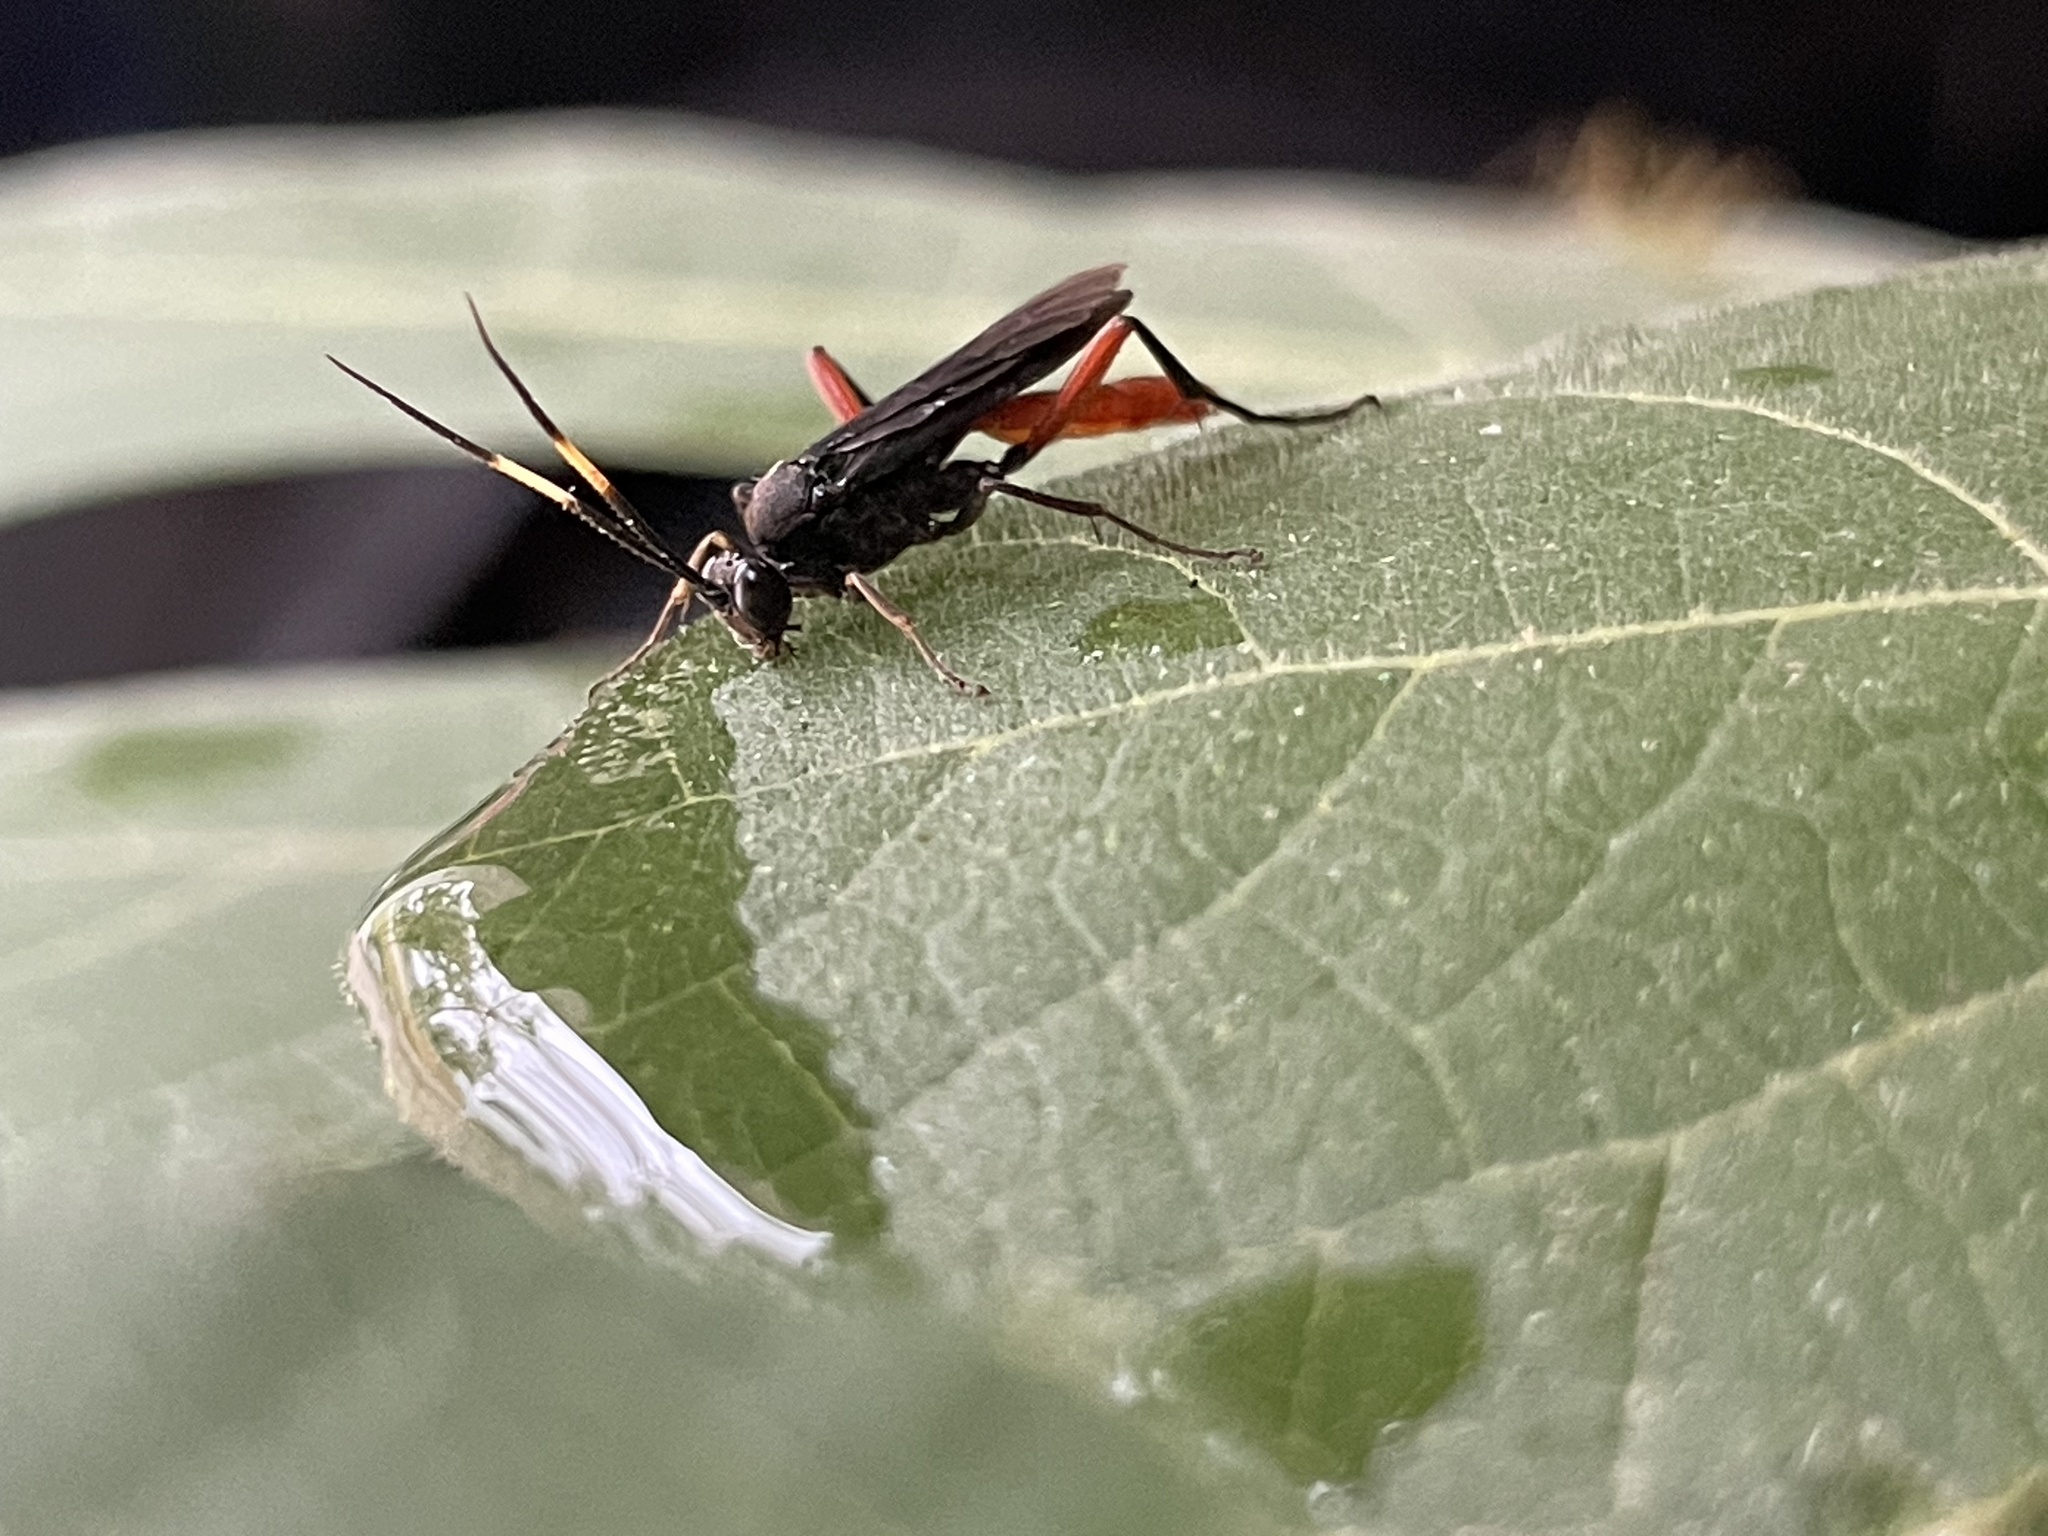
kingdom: Animalia
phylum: Arthropoda
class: Insecta
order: Hymenoptera
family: Ichneumonidae
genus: Limonethe
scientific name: Limonethe maurator
